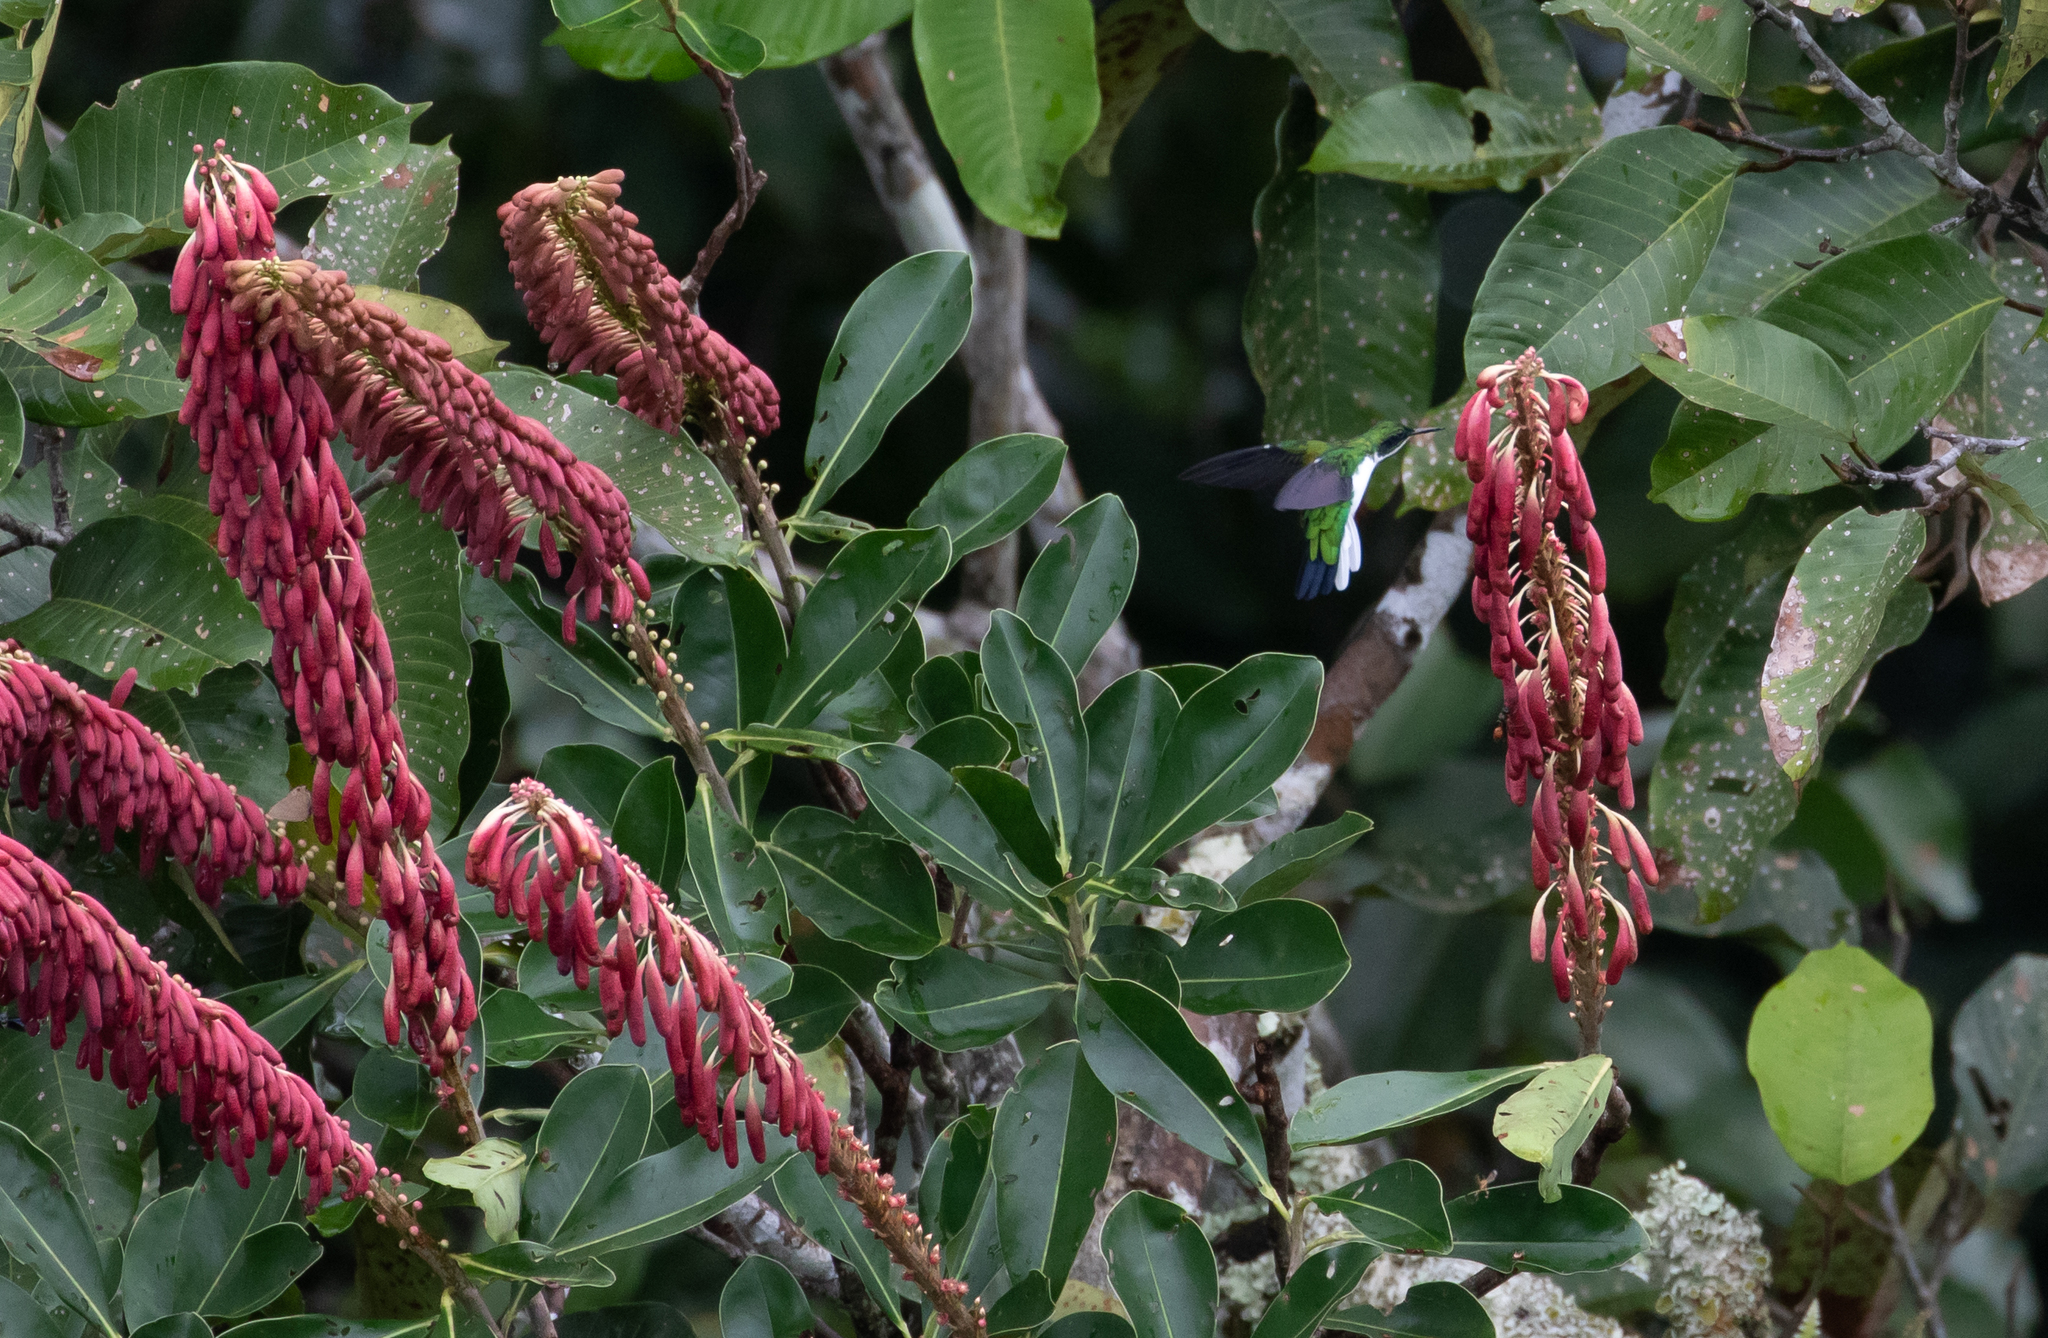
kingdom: Animalia
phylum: Chordata
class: Aves
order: Apodiformes
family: Trochilidae
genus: Heliothryx
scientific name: Heliothryx auritus
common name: Black-eared fairy
